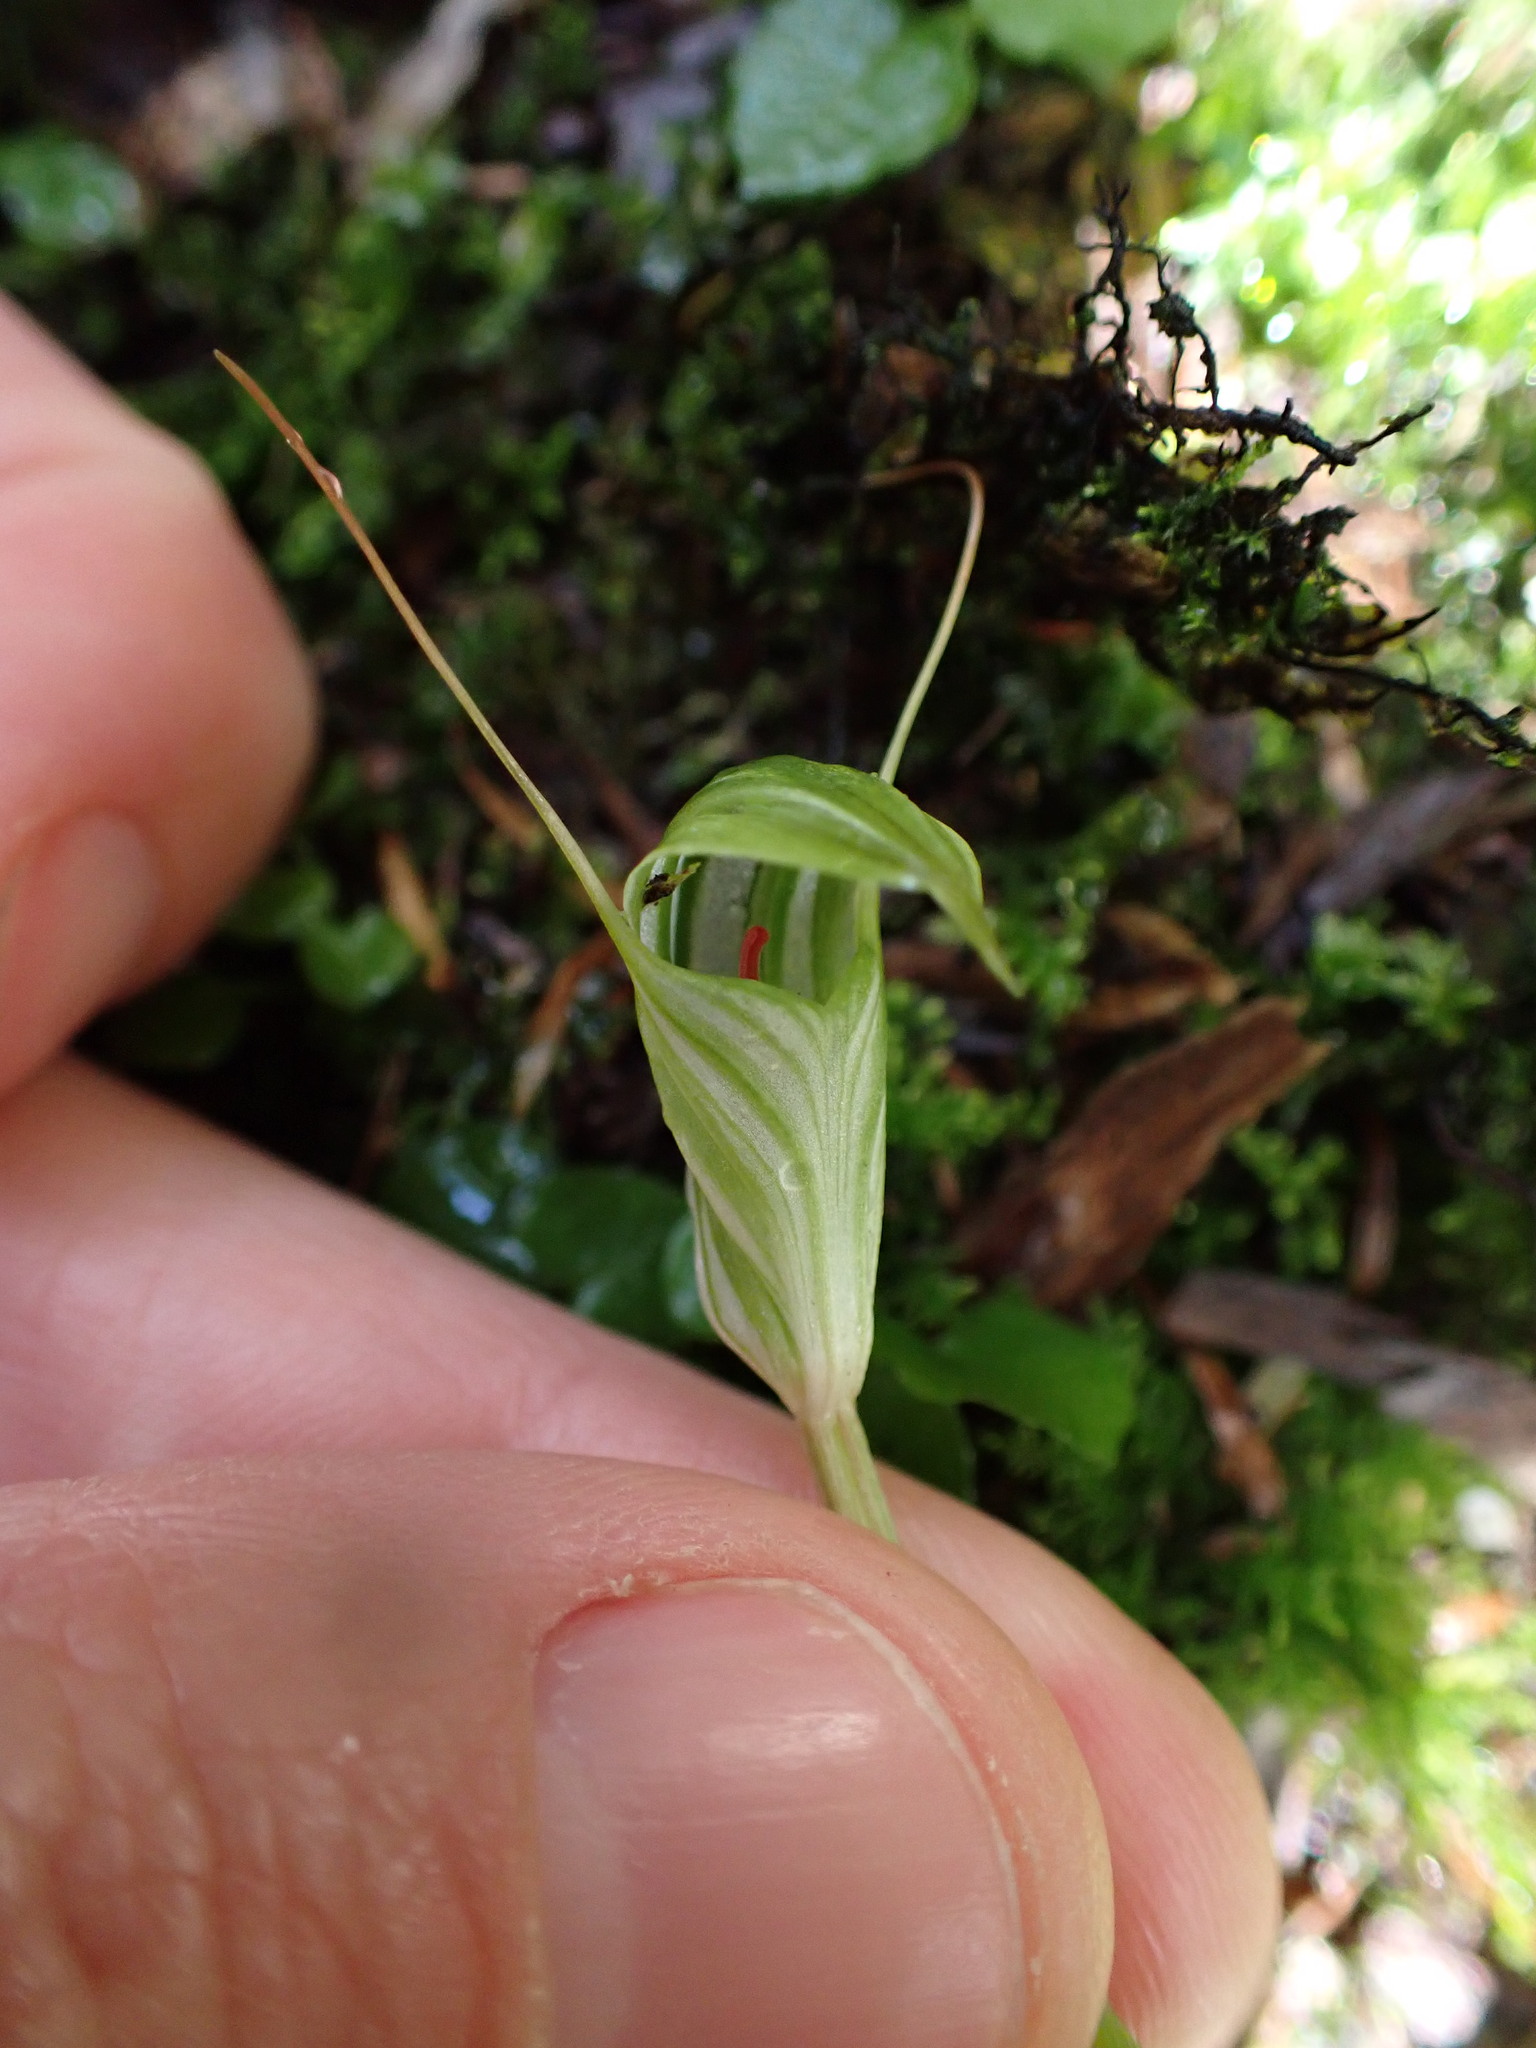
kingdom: Plantae
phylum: Tracheophyta
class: Liliopsida
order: Asparagales
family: Orchidaceae
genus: Pterostylis
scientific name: Pterostylis alobula
